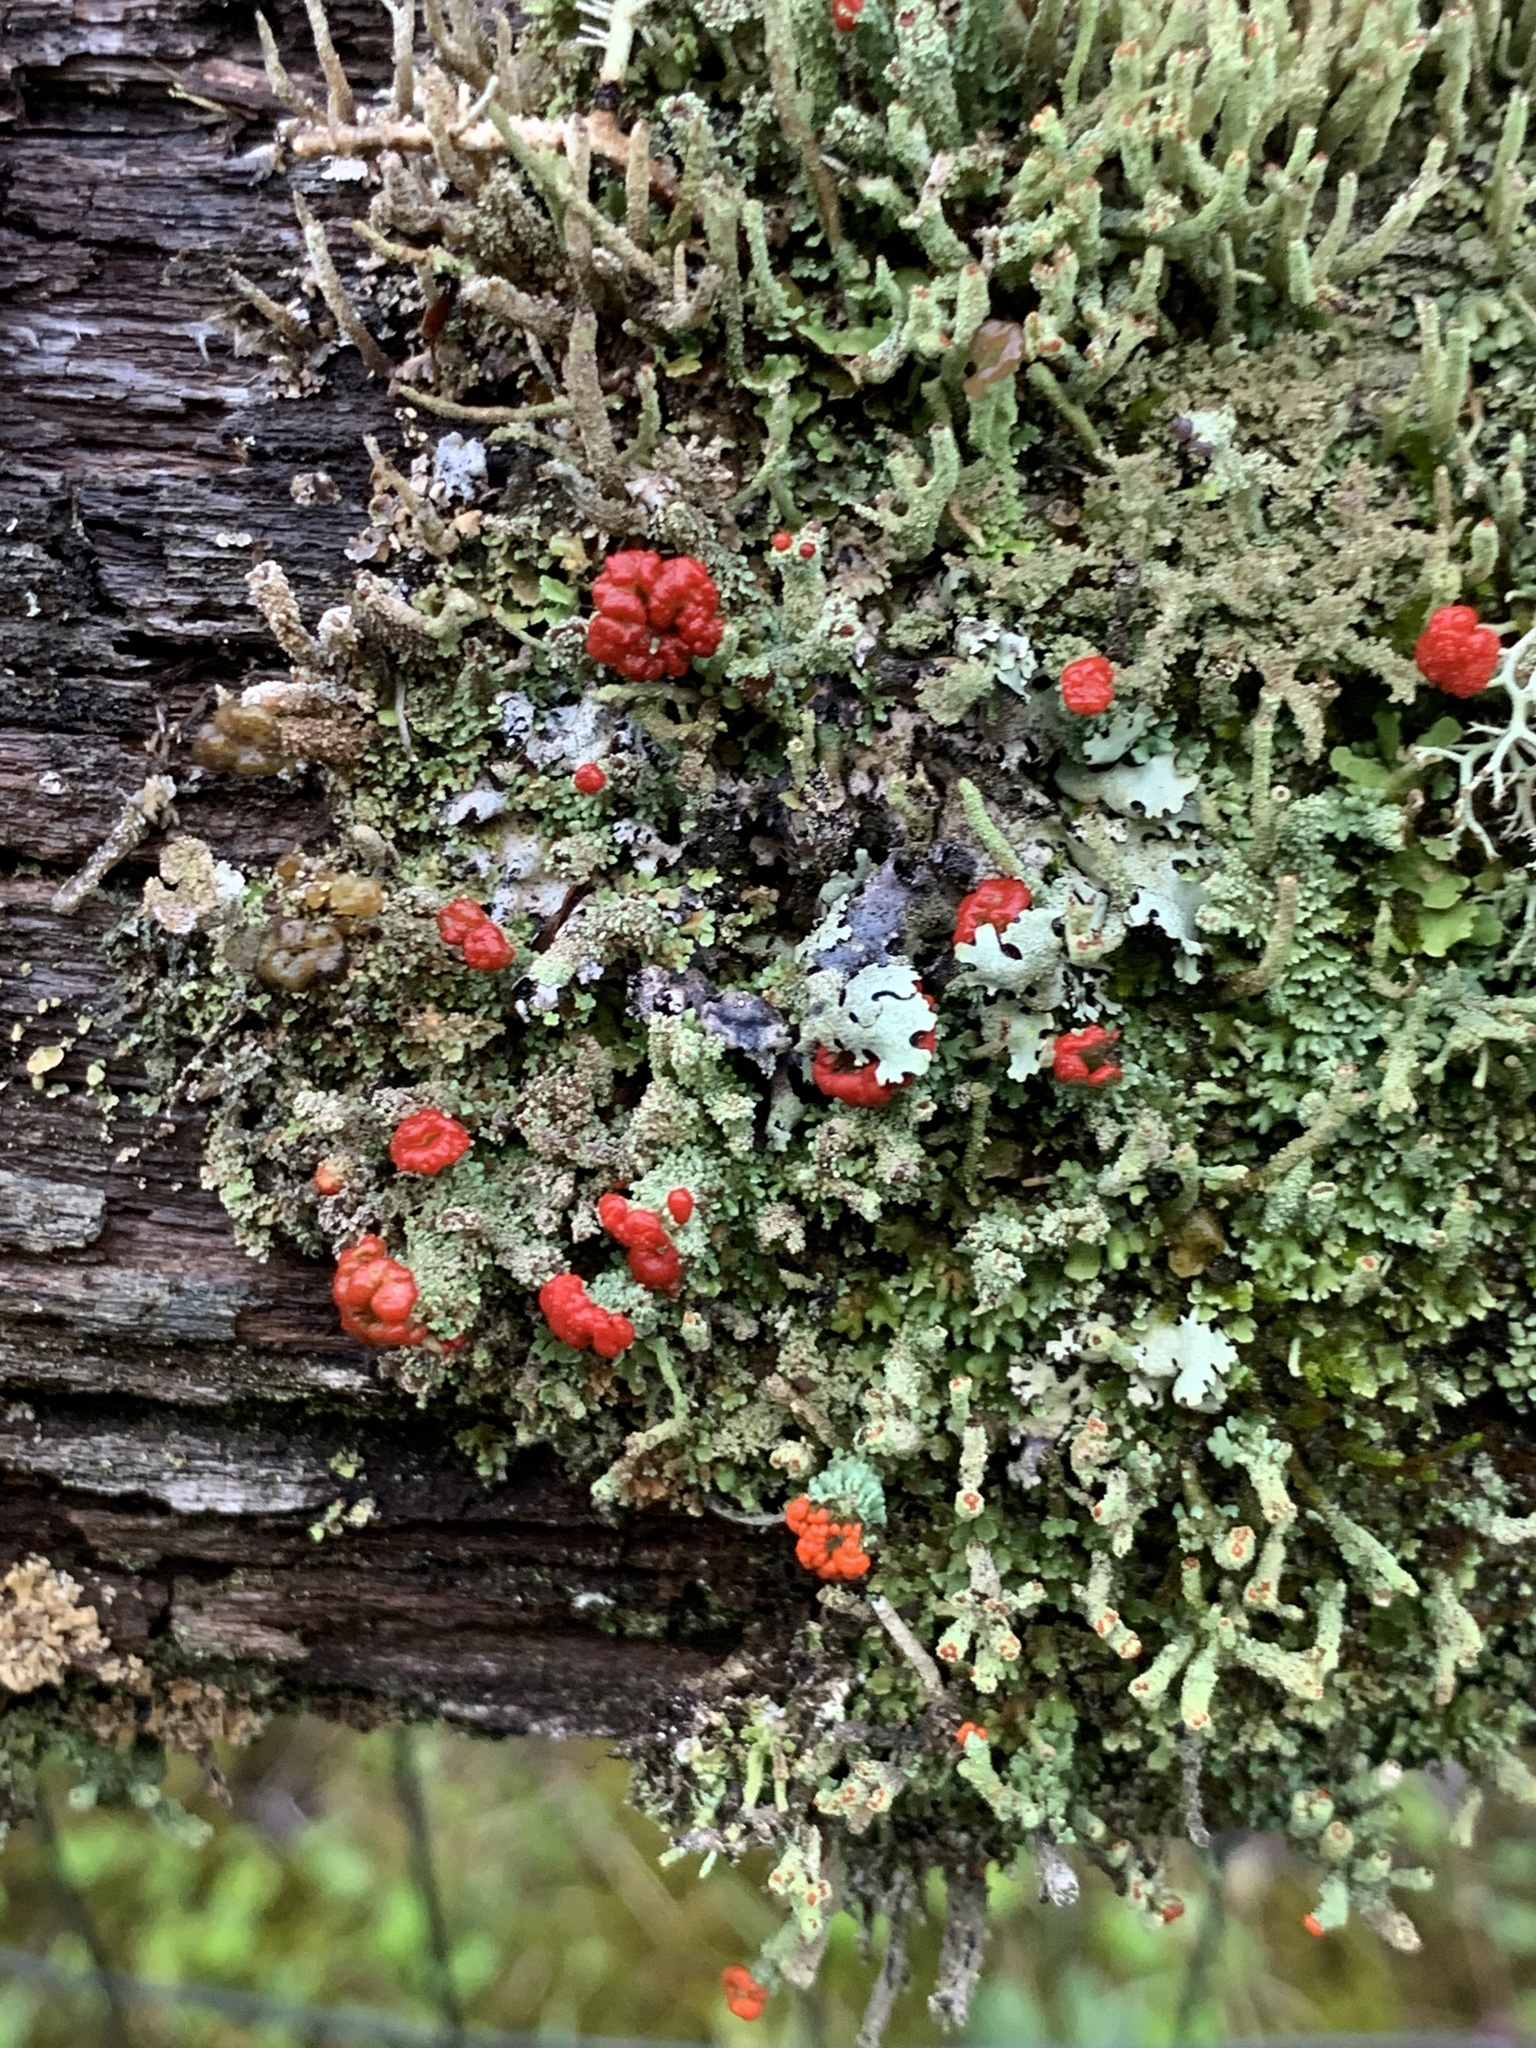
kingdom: Fungi
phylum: Ascomycota
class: Lecanoromycetes
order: Lecanorales
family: Cladoniaceae
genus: Cladonia
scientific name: Cladonia cristatella
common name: British soldier lichen
